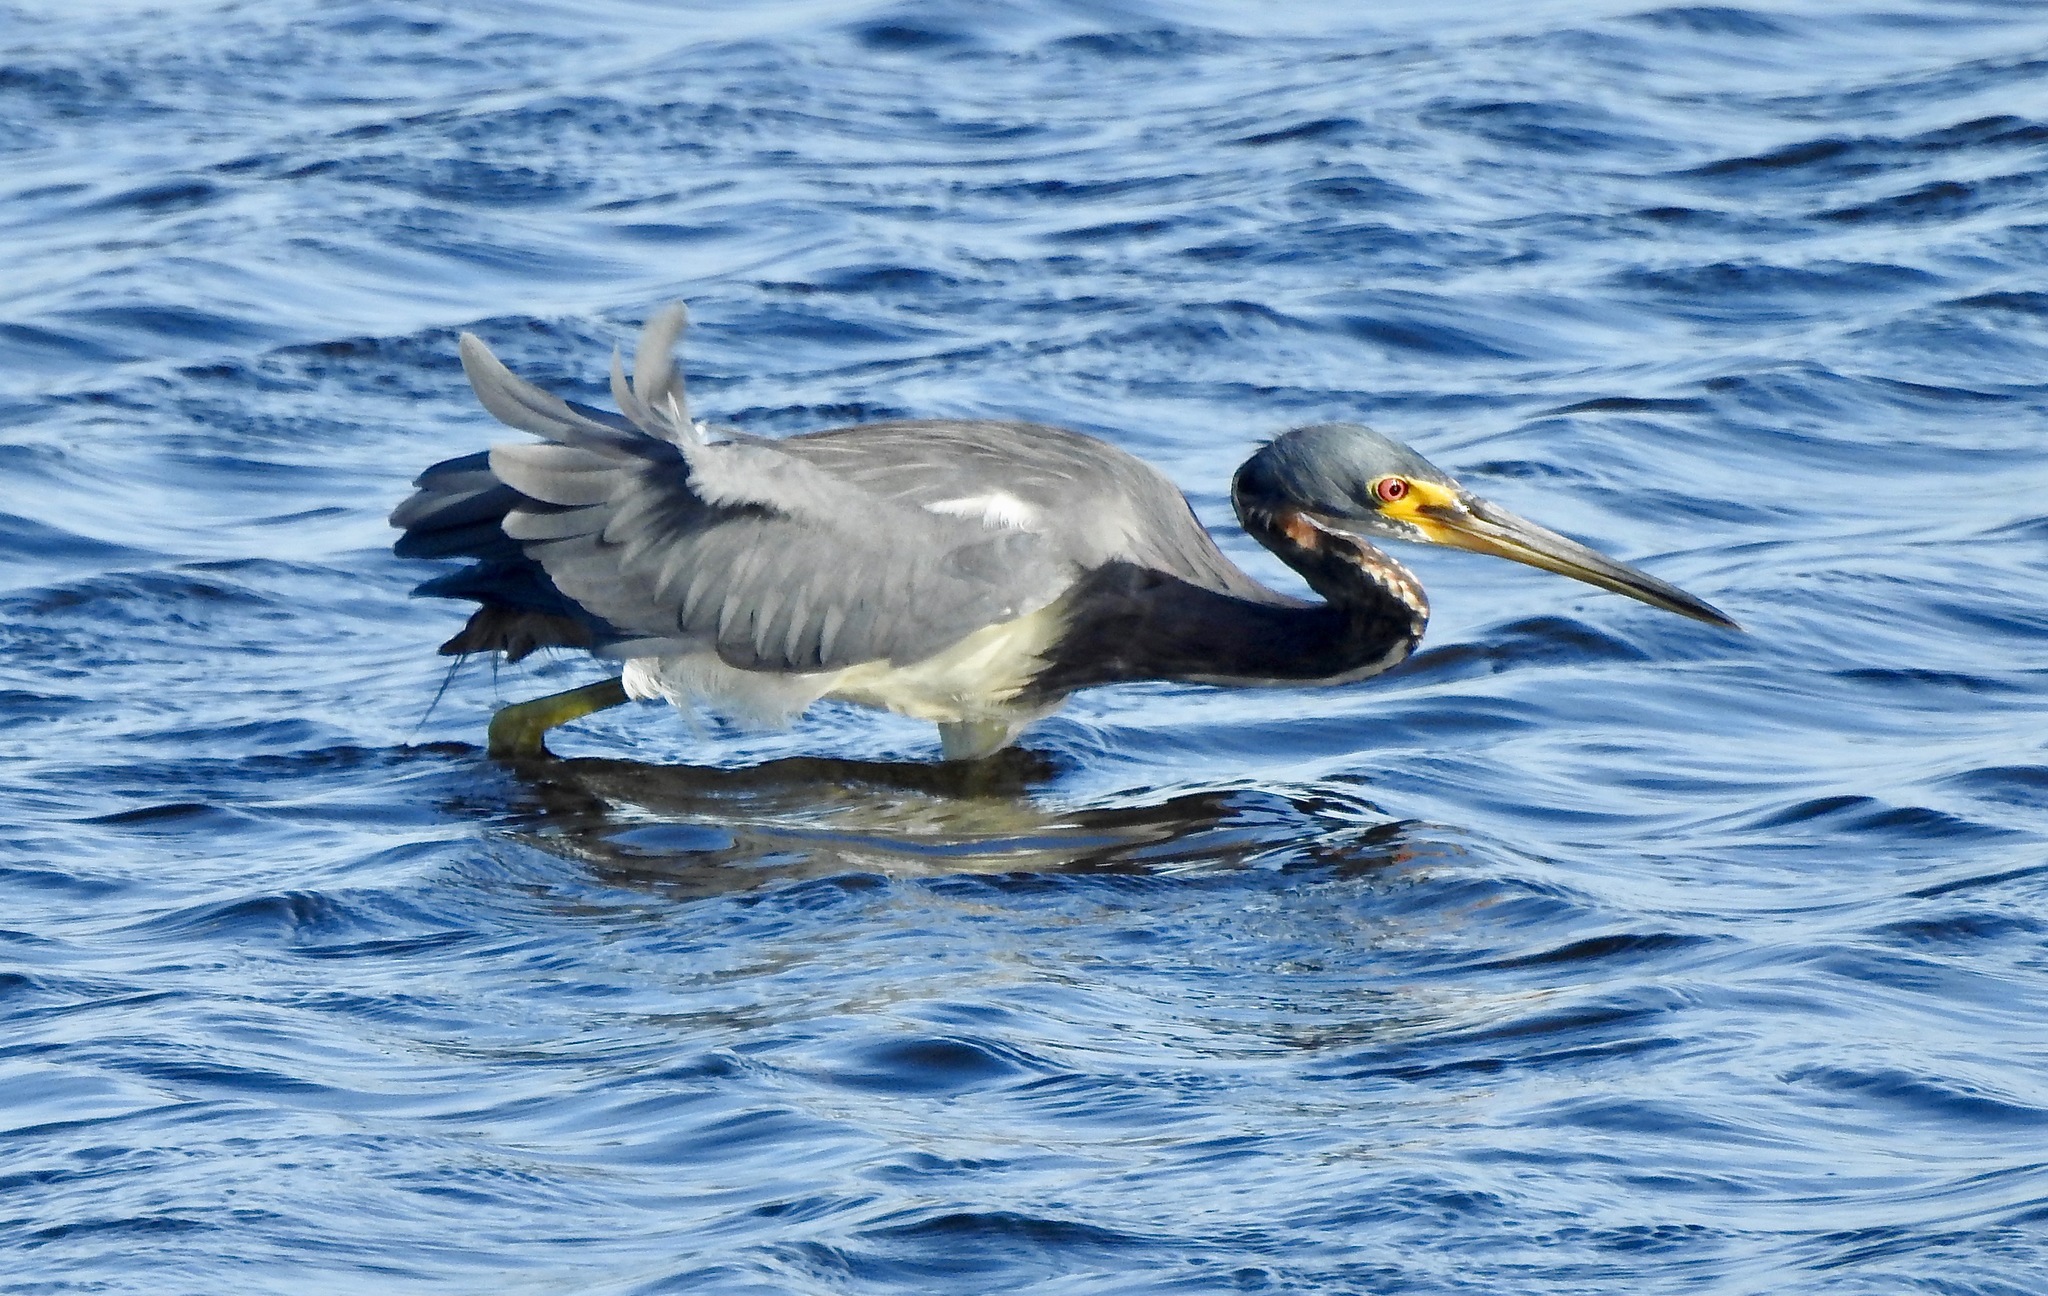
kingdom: Animalia
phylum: Chordata
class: Aves
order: Pelecaniformes
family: Ardeidae
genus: Egretta
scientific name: Egretta tricolor
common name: Tricolored heron
